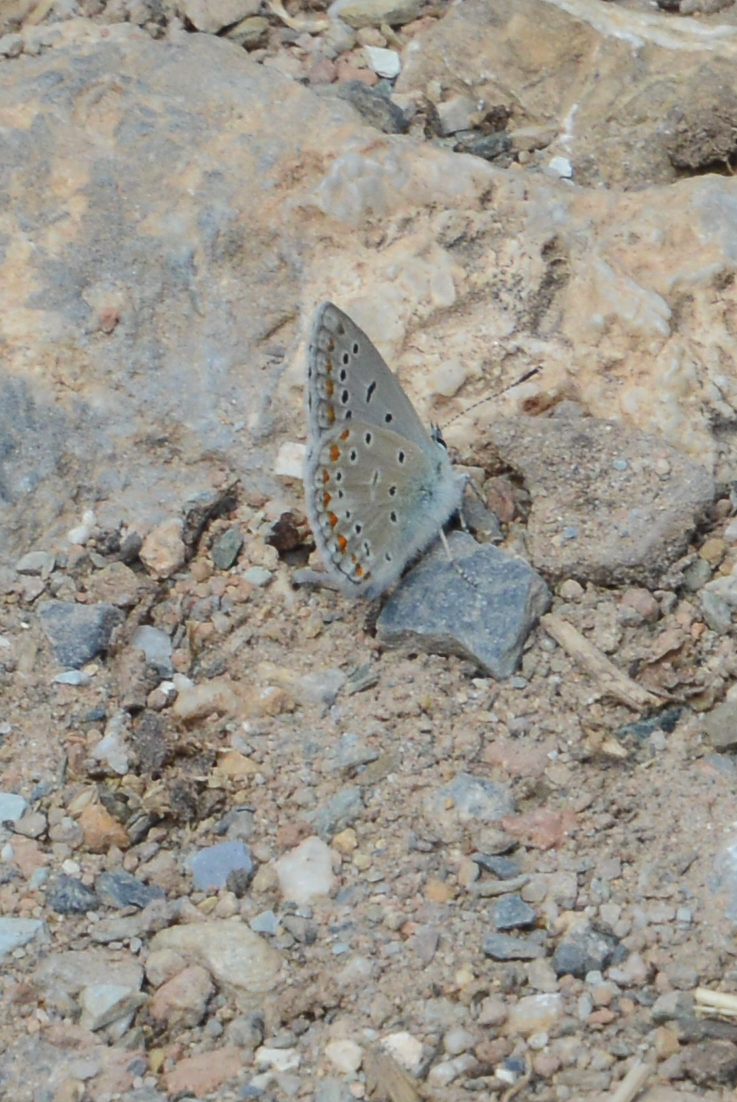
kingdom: Animalia
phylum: Arthropoda
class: Insecta
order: Lepidoptera
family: Lycaenidae
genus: Polyommatus
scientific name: Polyommatus icarus
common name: Common blue
